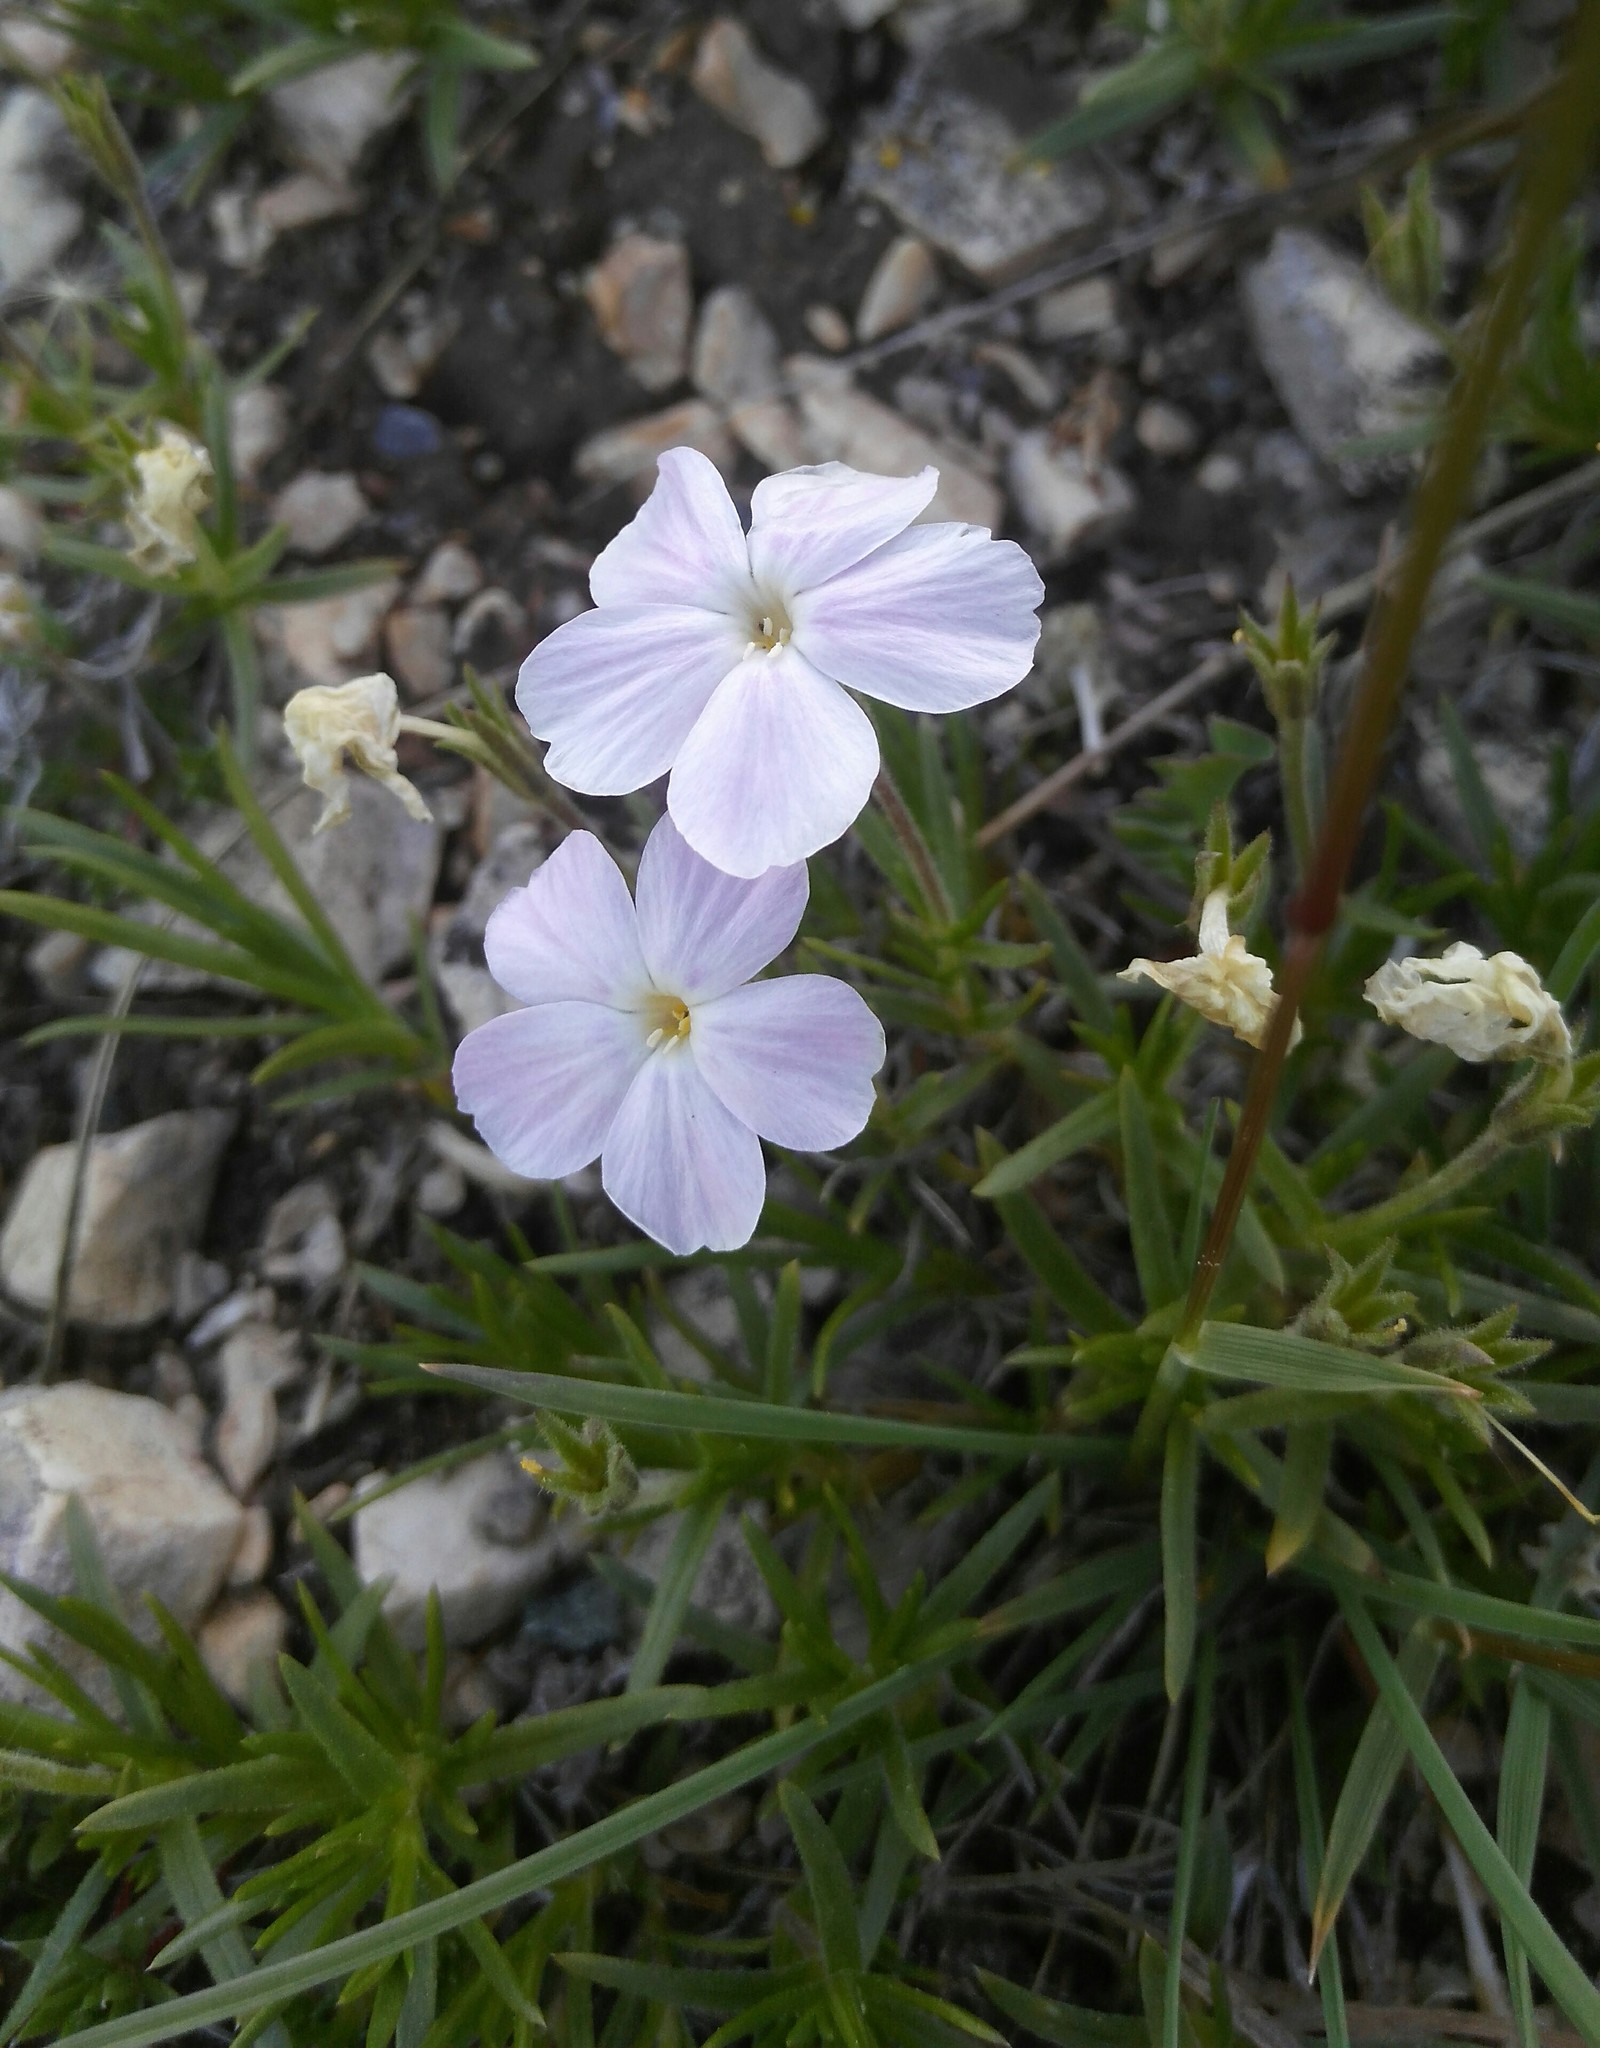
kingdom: Plantae
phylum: Tracheophyta
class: Magnoliopsida
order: Ericales
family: Polemoniaceae
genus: Phlox
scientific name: Phlox sibirica
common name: Siberian phlox
